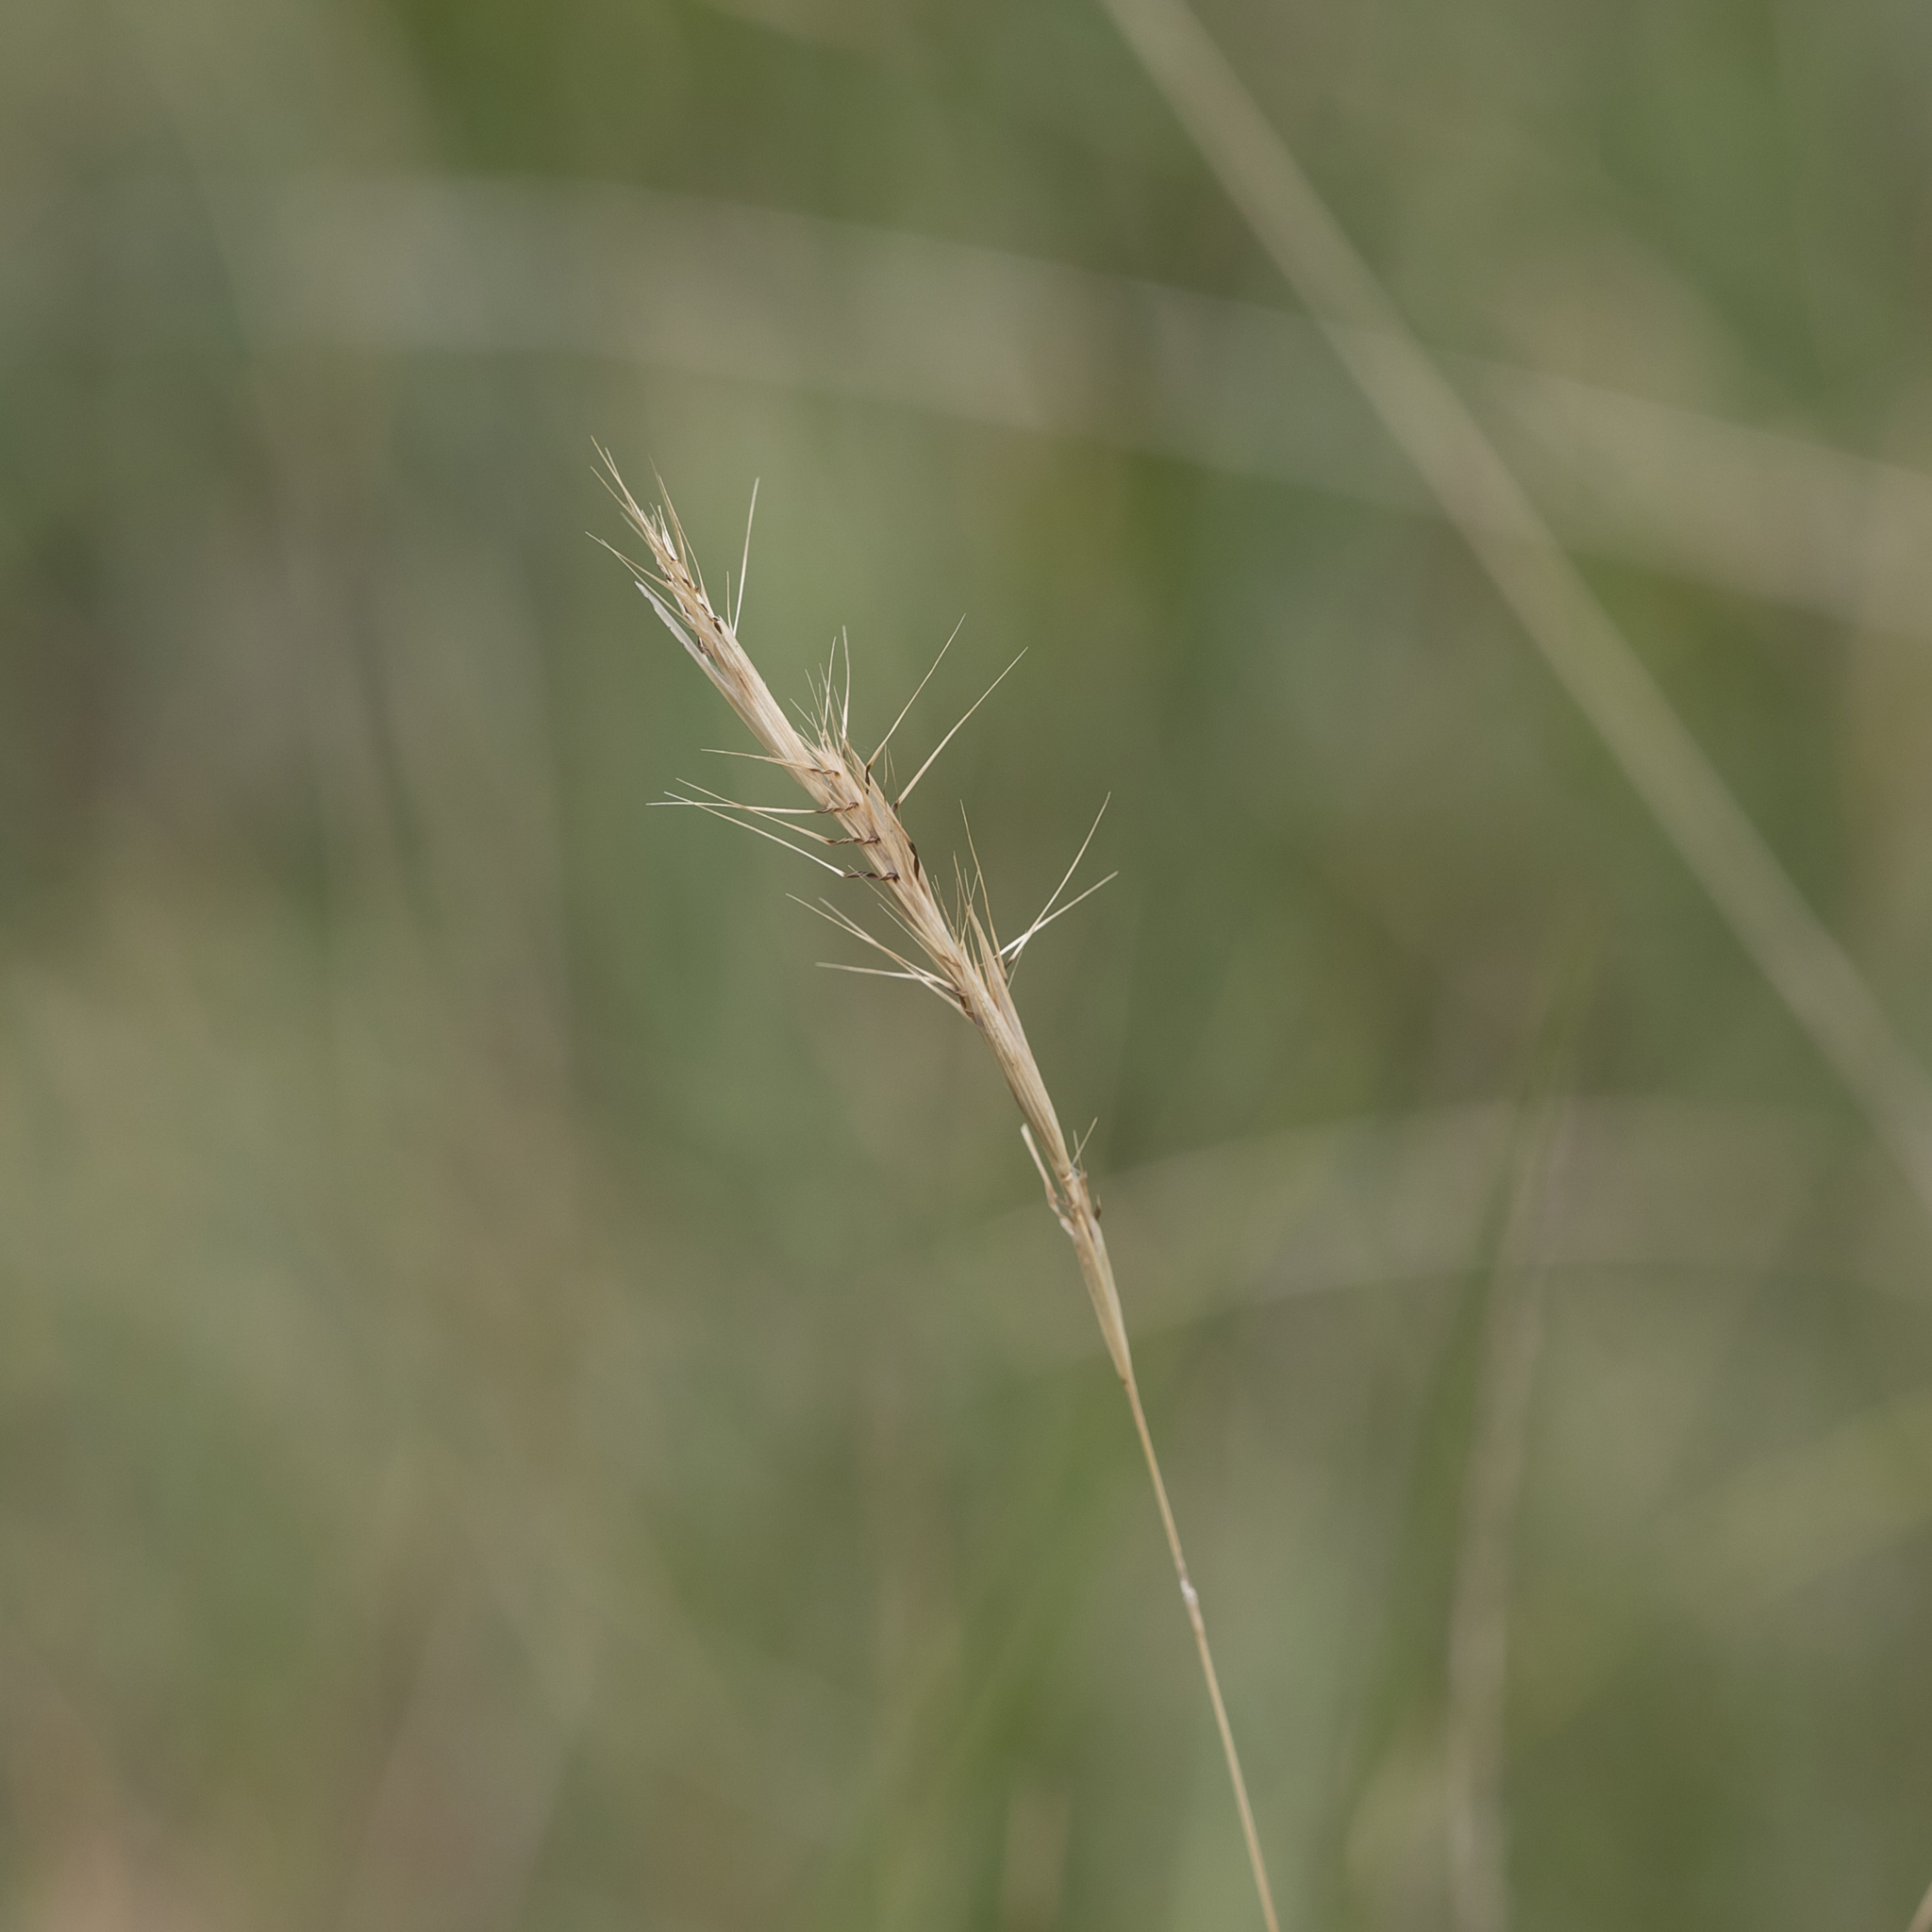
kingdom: Plantae
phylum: Tracheophyta
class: Liliopsida
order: Poales
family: Poaceae
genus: Rytidosperma
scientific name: Rytidosperma racemosum
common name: Wallaby-grass
